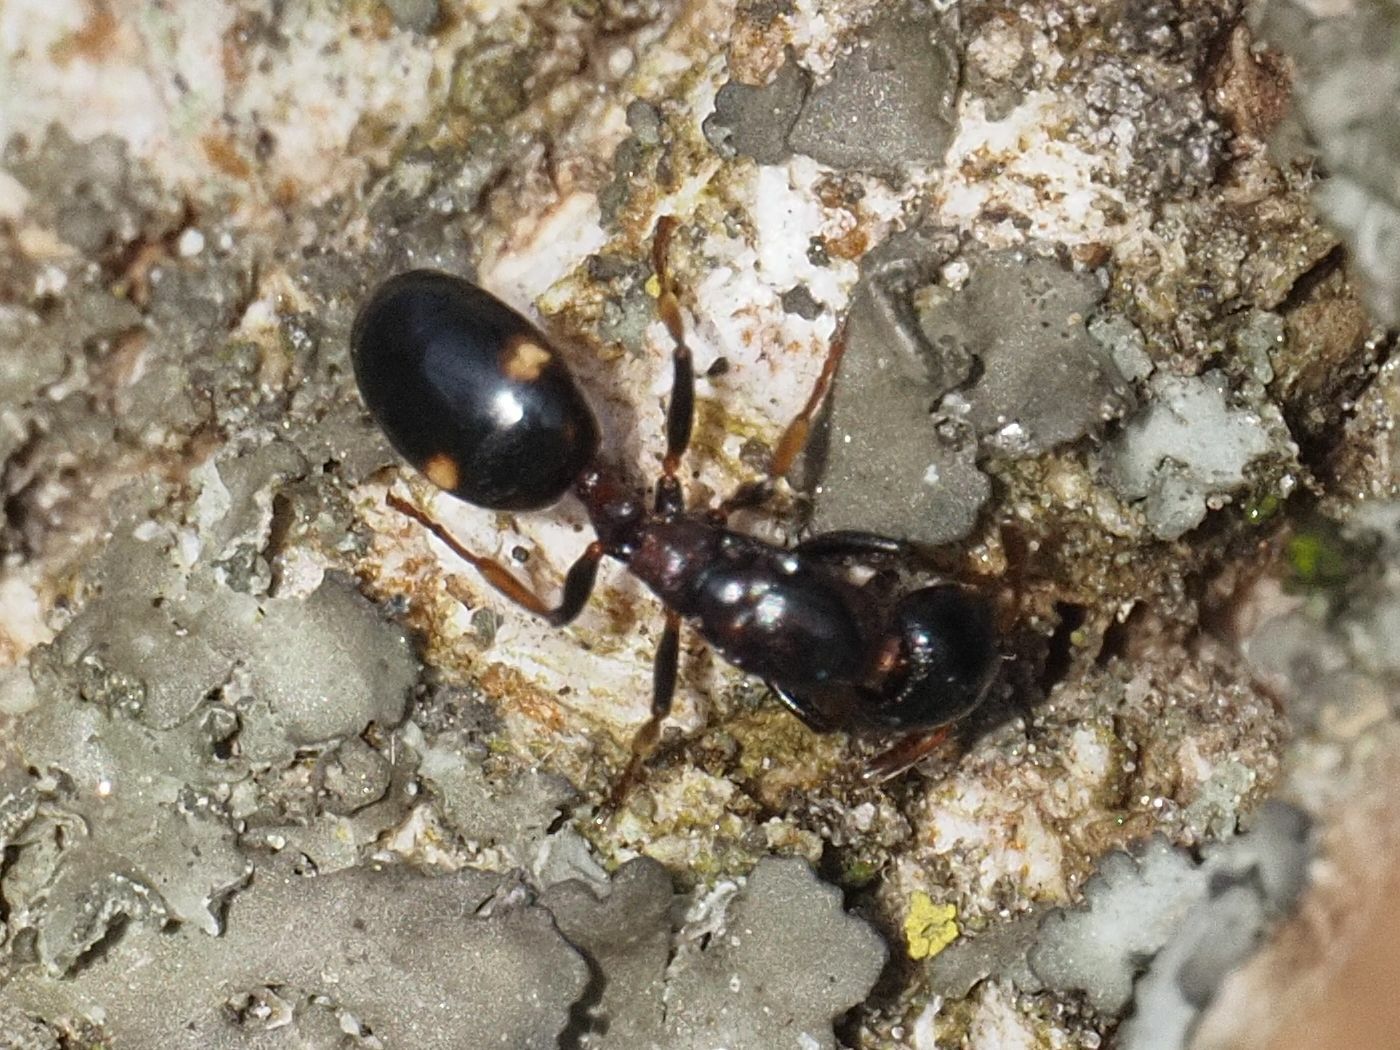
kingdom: Animalia
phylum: Arthropoda
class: Insecta
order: Hymenoptera
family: Formicidae
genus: Dolichoderus
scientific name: Dolichoderus quadripunctatus
